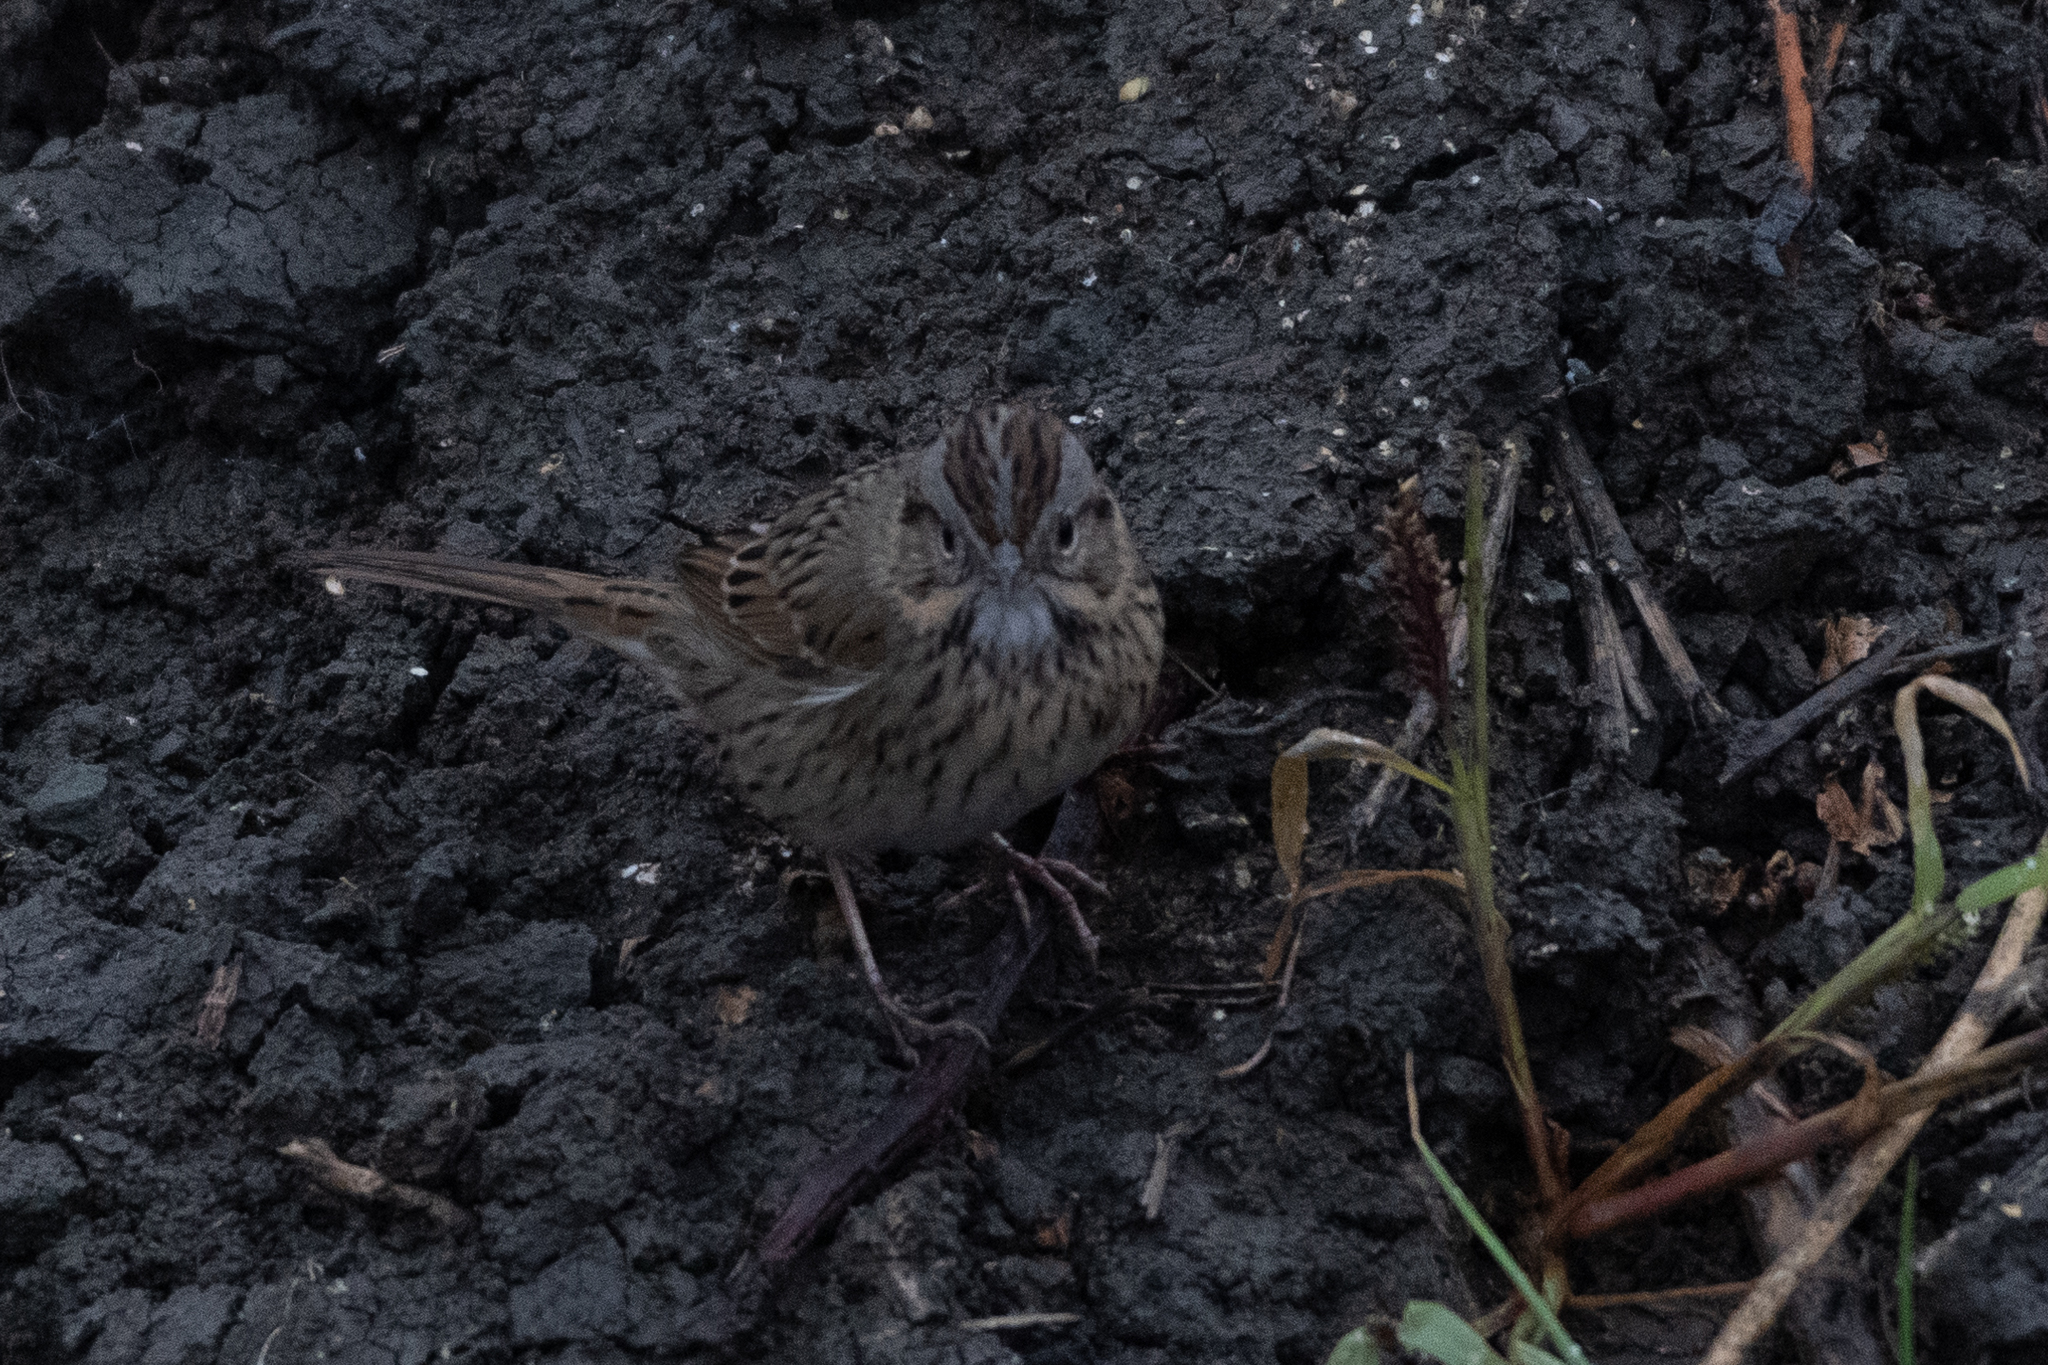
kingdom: Animalia
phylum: Chordata
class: Aves
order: Passeriformes
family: Passerellidae
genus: Melospiza
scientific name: Melospiza lincolnii
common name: Lincoln's sparrow
